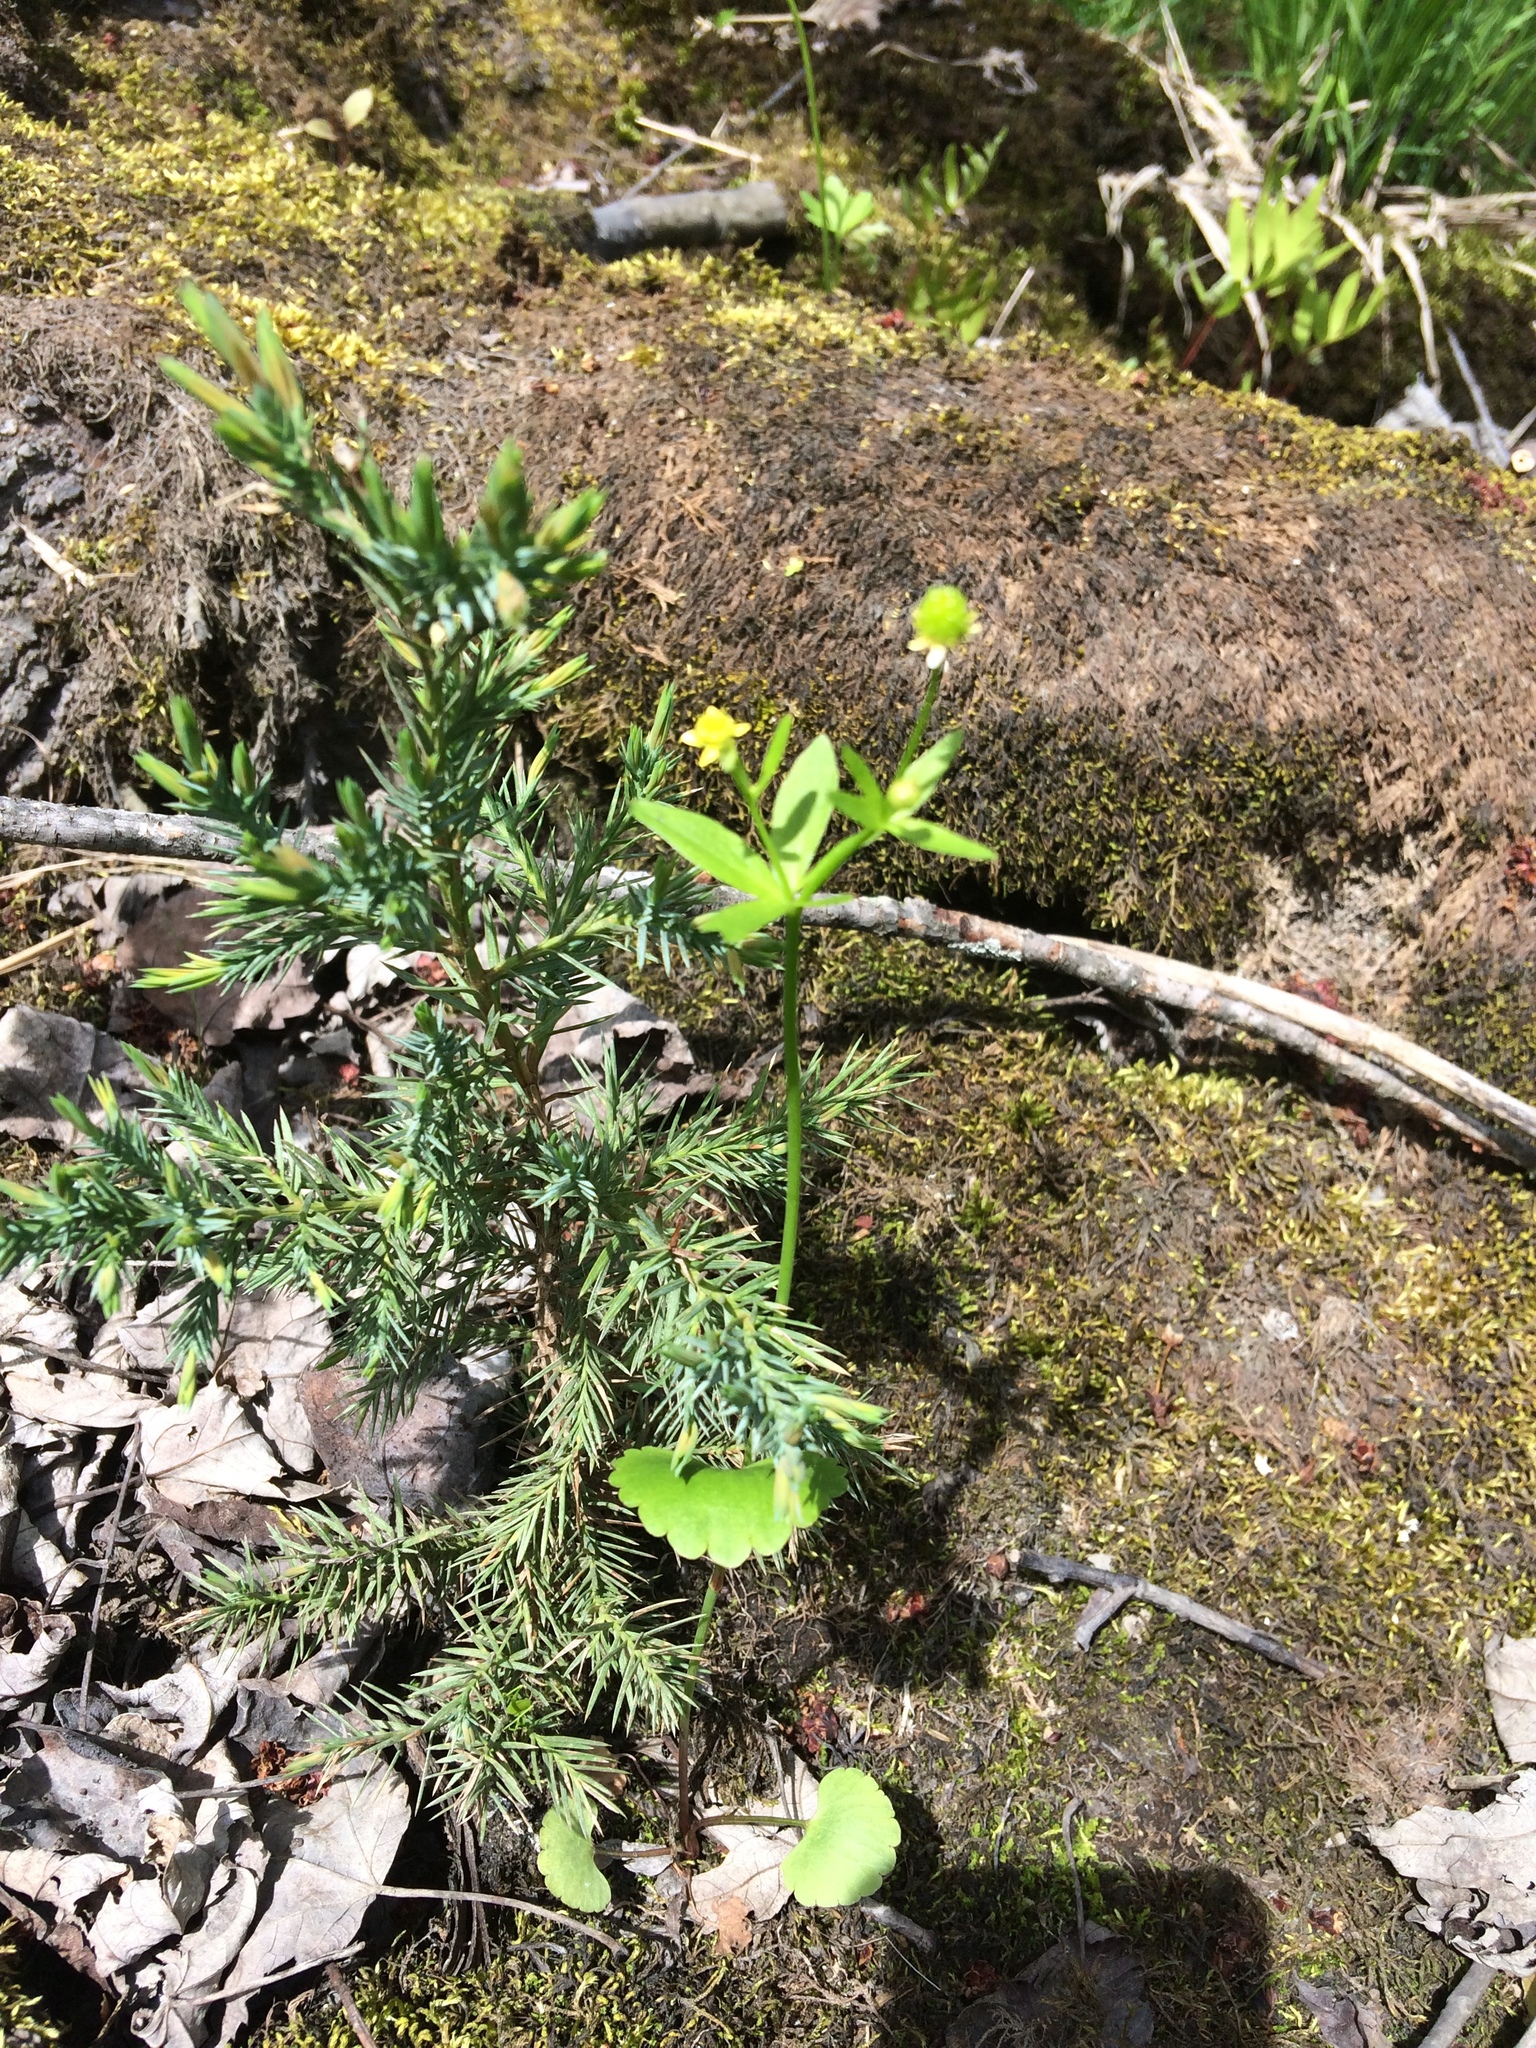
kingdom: Plantae
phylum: Tracheophyta
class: Magnoliopsida
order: Ranunculales
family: Ranunculaceae
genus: Ranunculus
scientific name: Ranunculus abortivus
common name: Early wood buttercup
